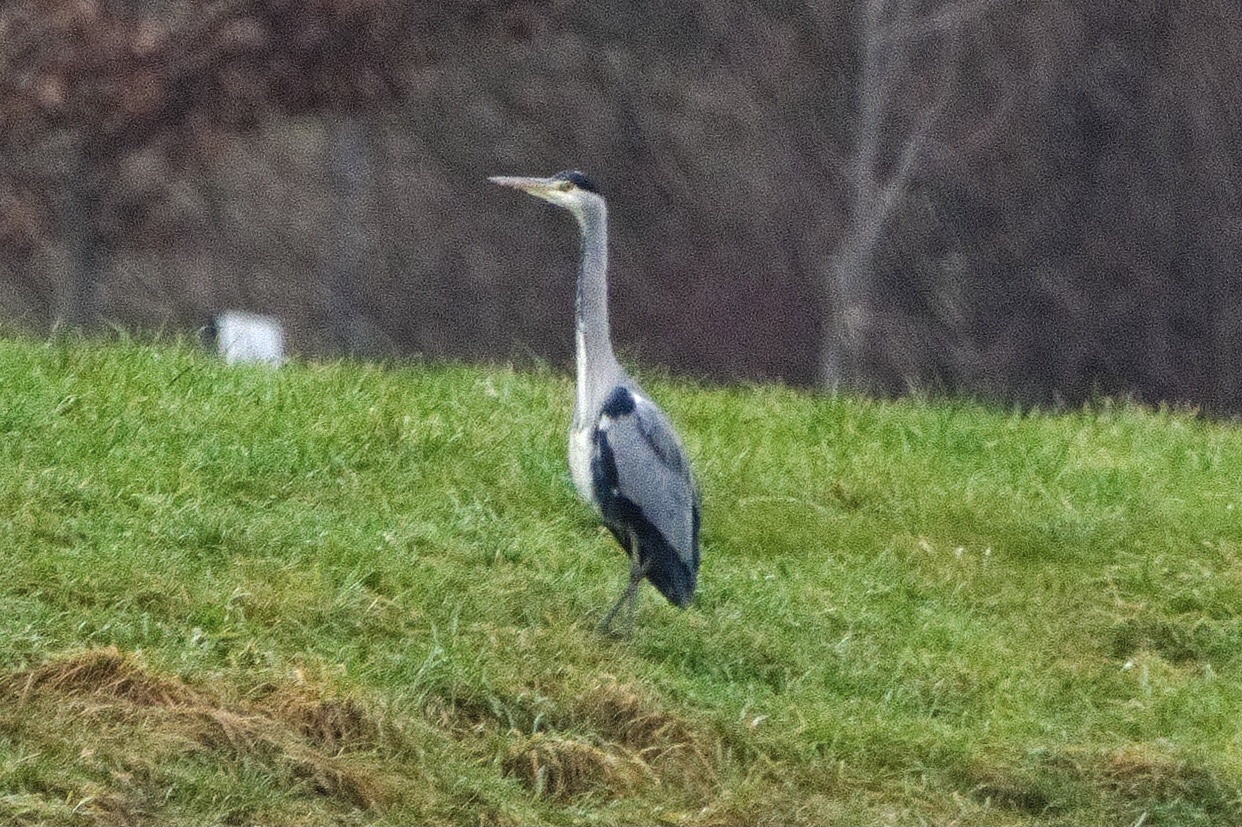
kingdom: Animalia
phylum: Chordata
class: Aves
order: Pelecaniformes
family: Ardeidae
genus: Ardea
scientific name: Ardea cinerea
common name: Grey heron
